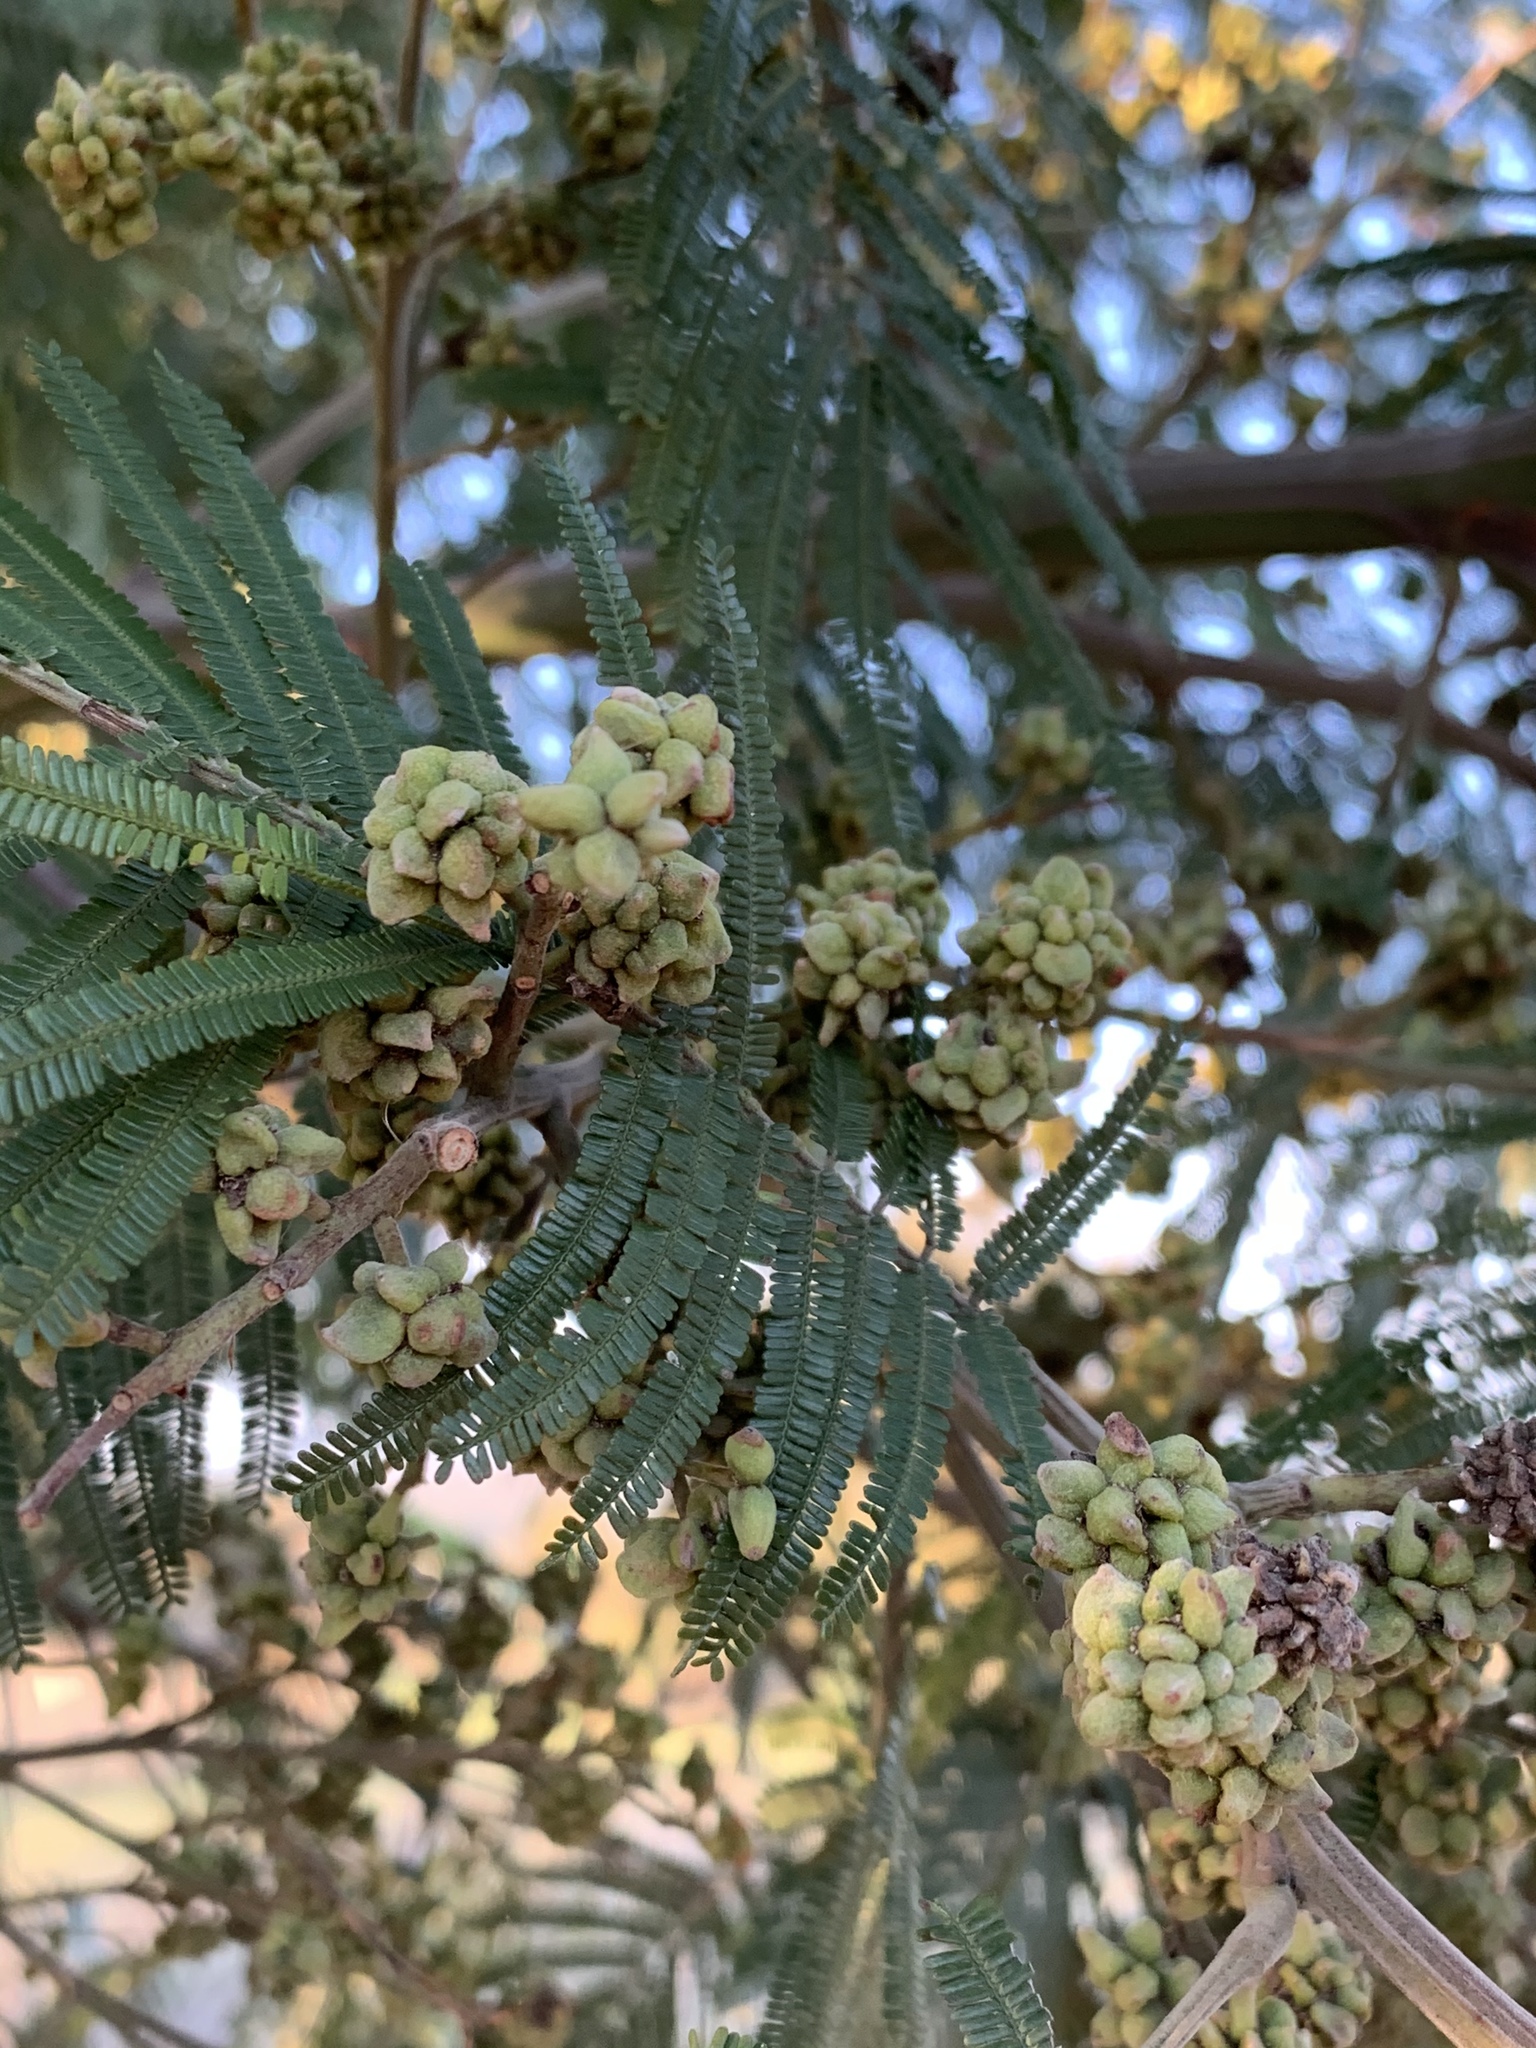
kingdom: Animalia
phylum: Arthropoda
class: Insecta
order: Diptera
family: Cecidomyiidae
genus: Dasineura
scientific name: Dasineura rubiformis
